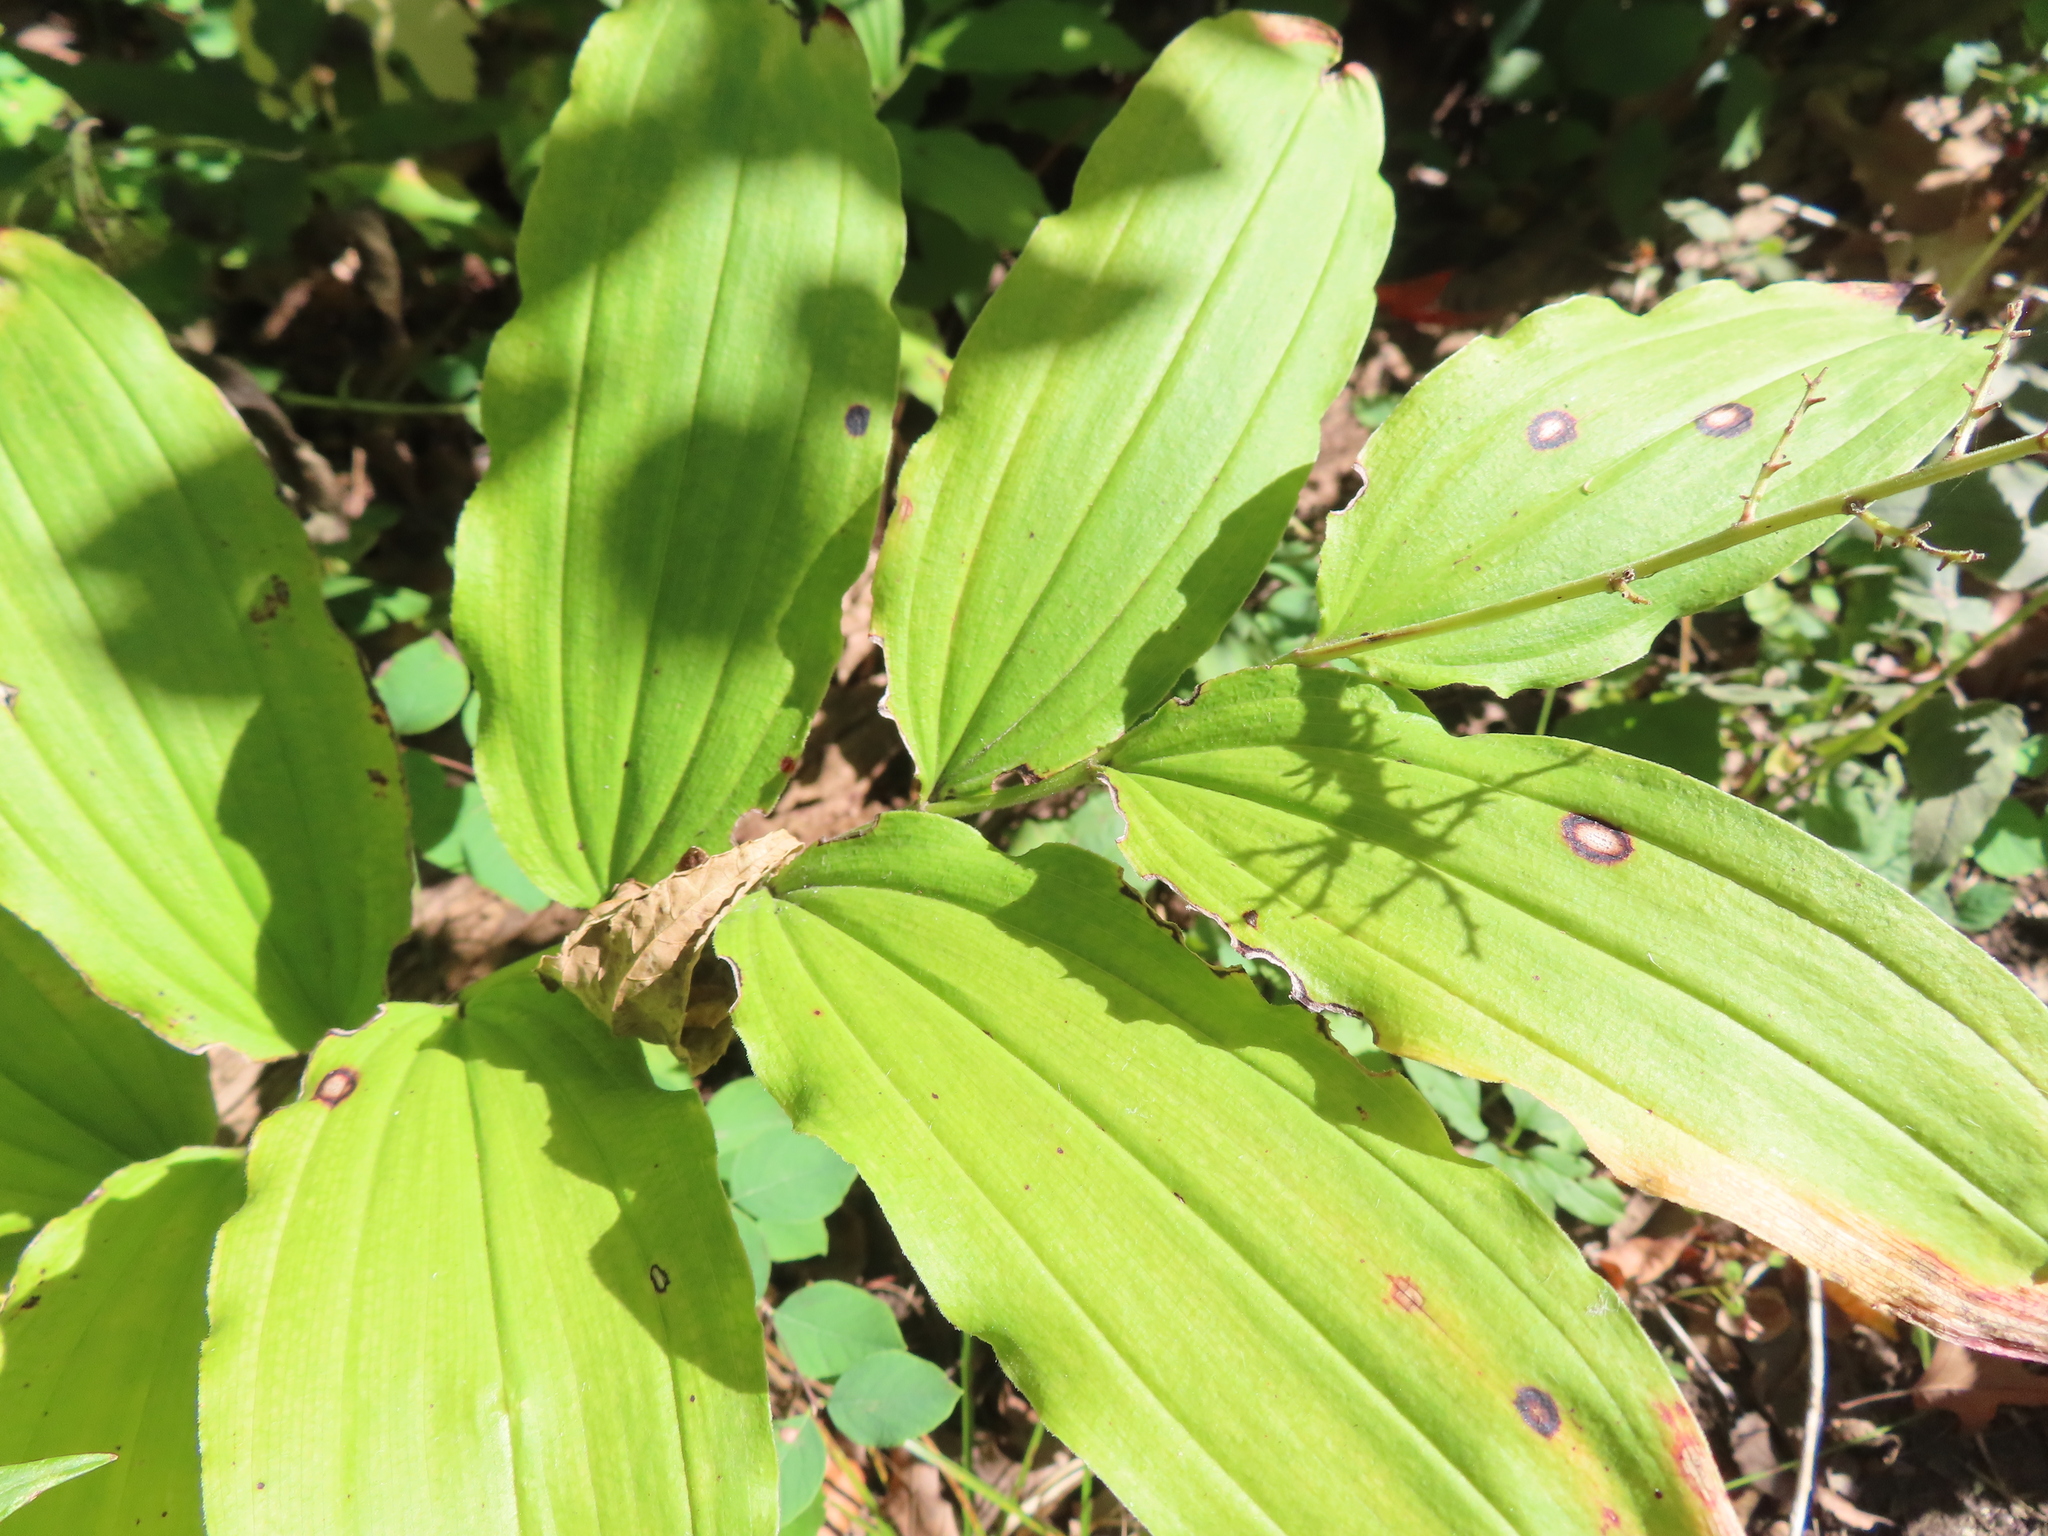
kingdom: Plantae
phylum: Tracheophyta
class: Liliopsida
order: Asparagales
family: Asparagaceae
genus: Maianthemum
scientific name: Maianthemum racemosum
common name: False spikenard
